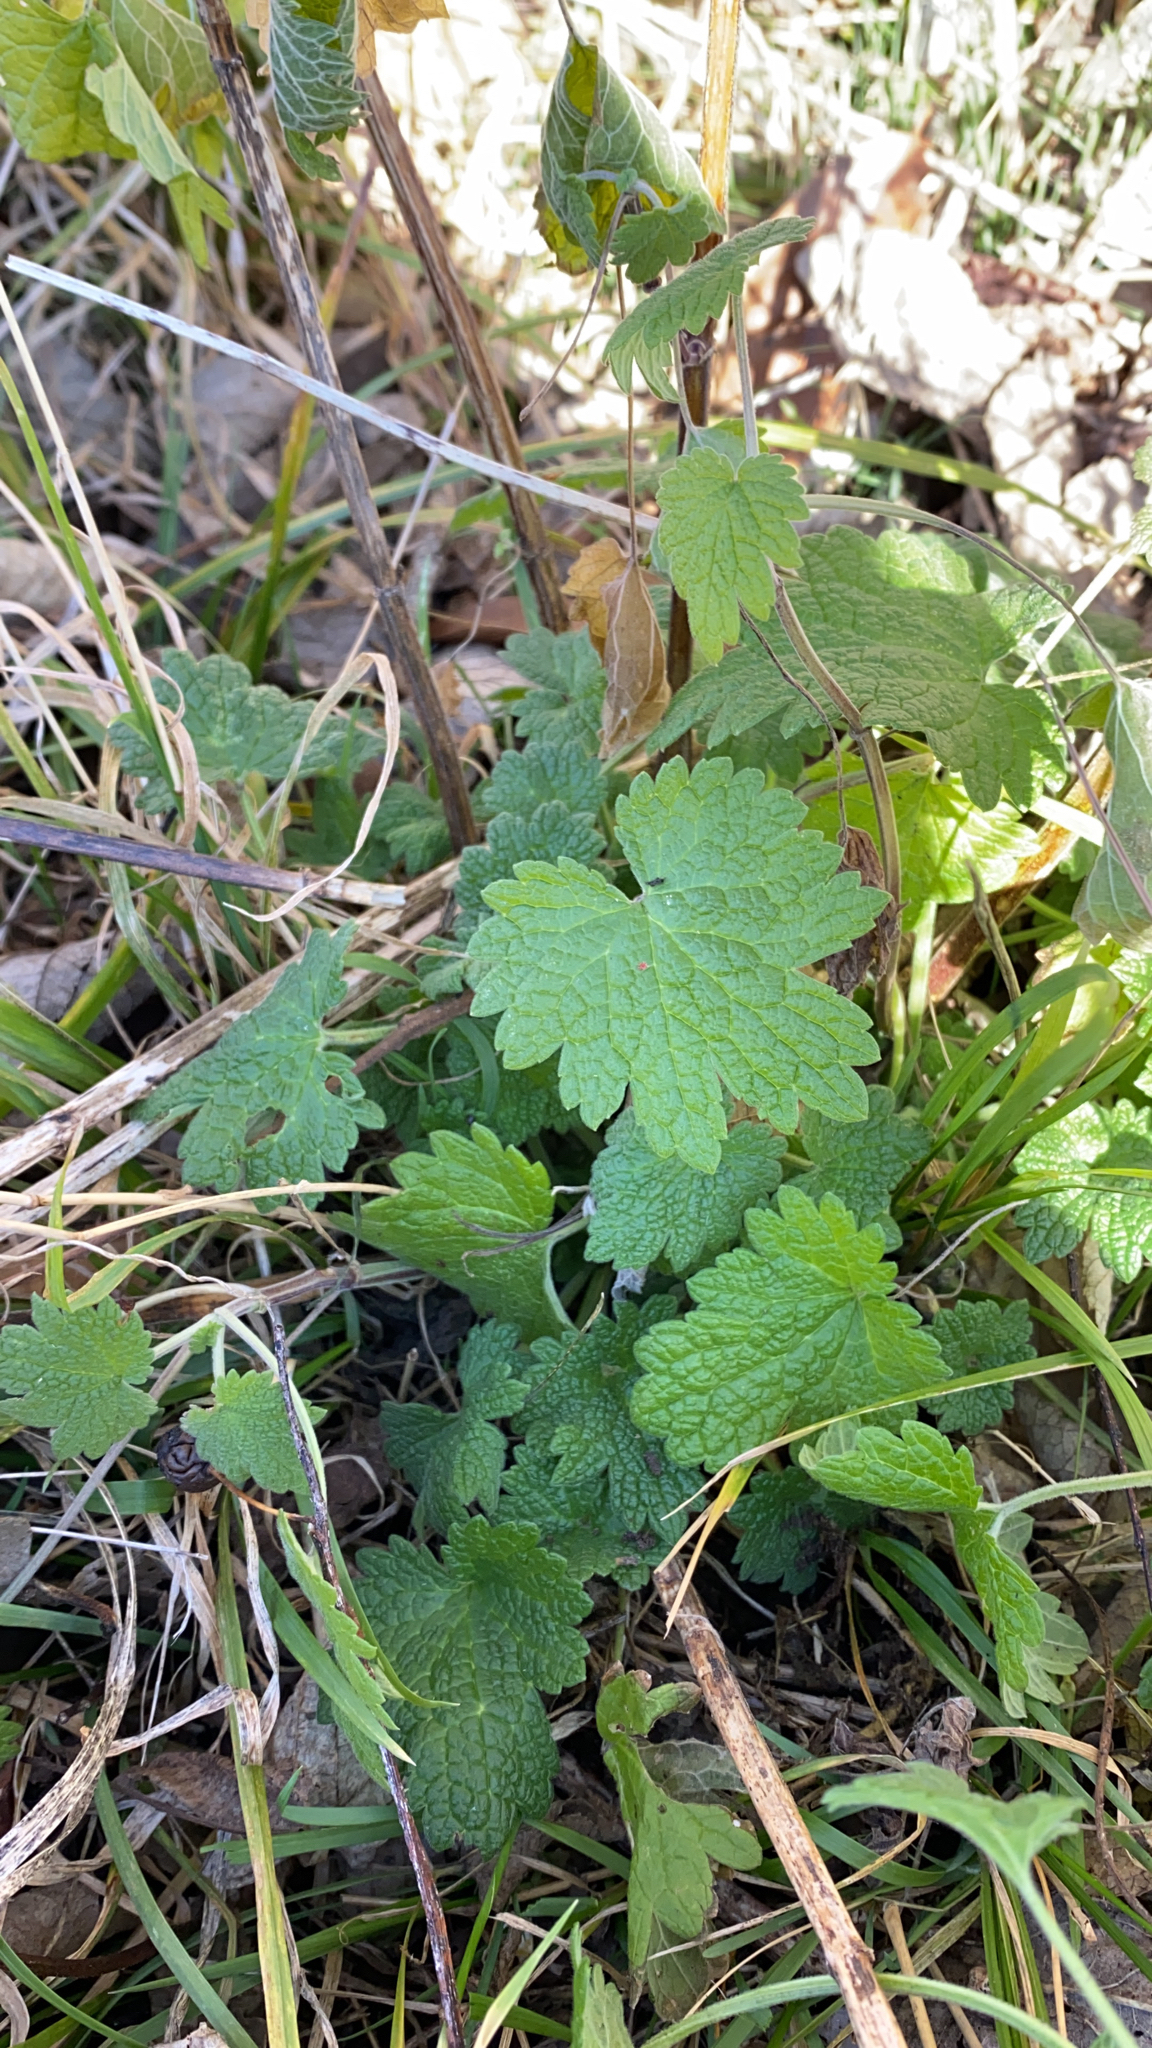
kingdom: Plantae
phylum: Tracheophyta
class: Magnoliopsida
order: Lamiales
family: Lamiaceae
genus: Leonurus
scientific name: Leonurus cardiaca
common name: Motherwort
